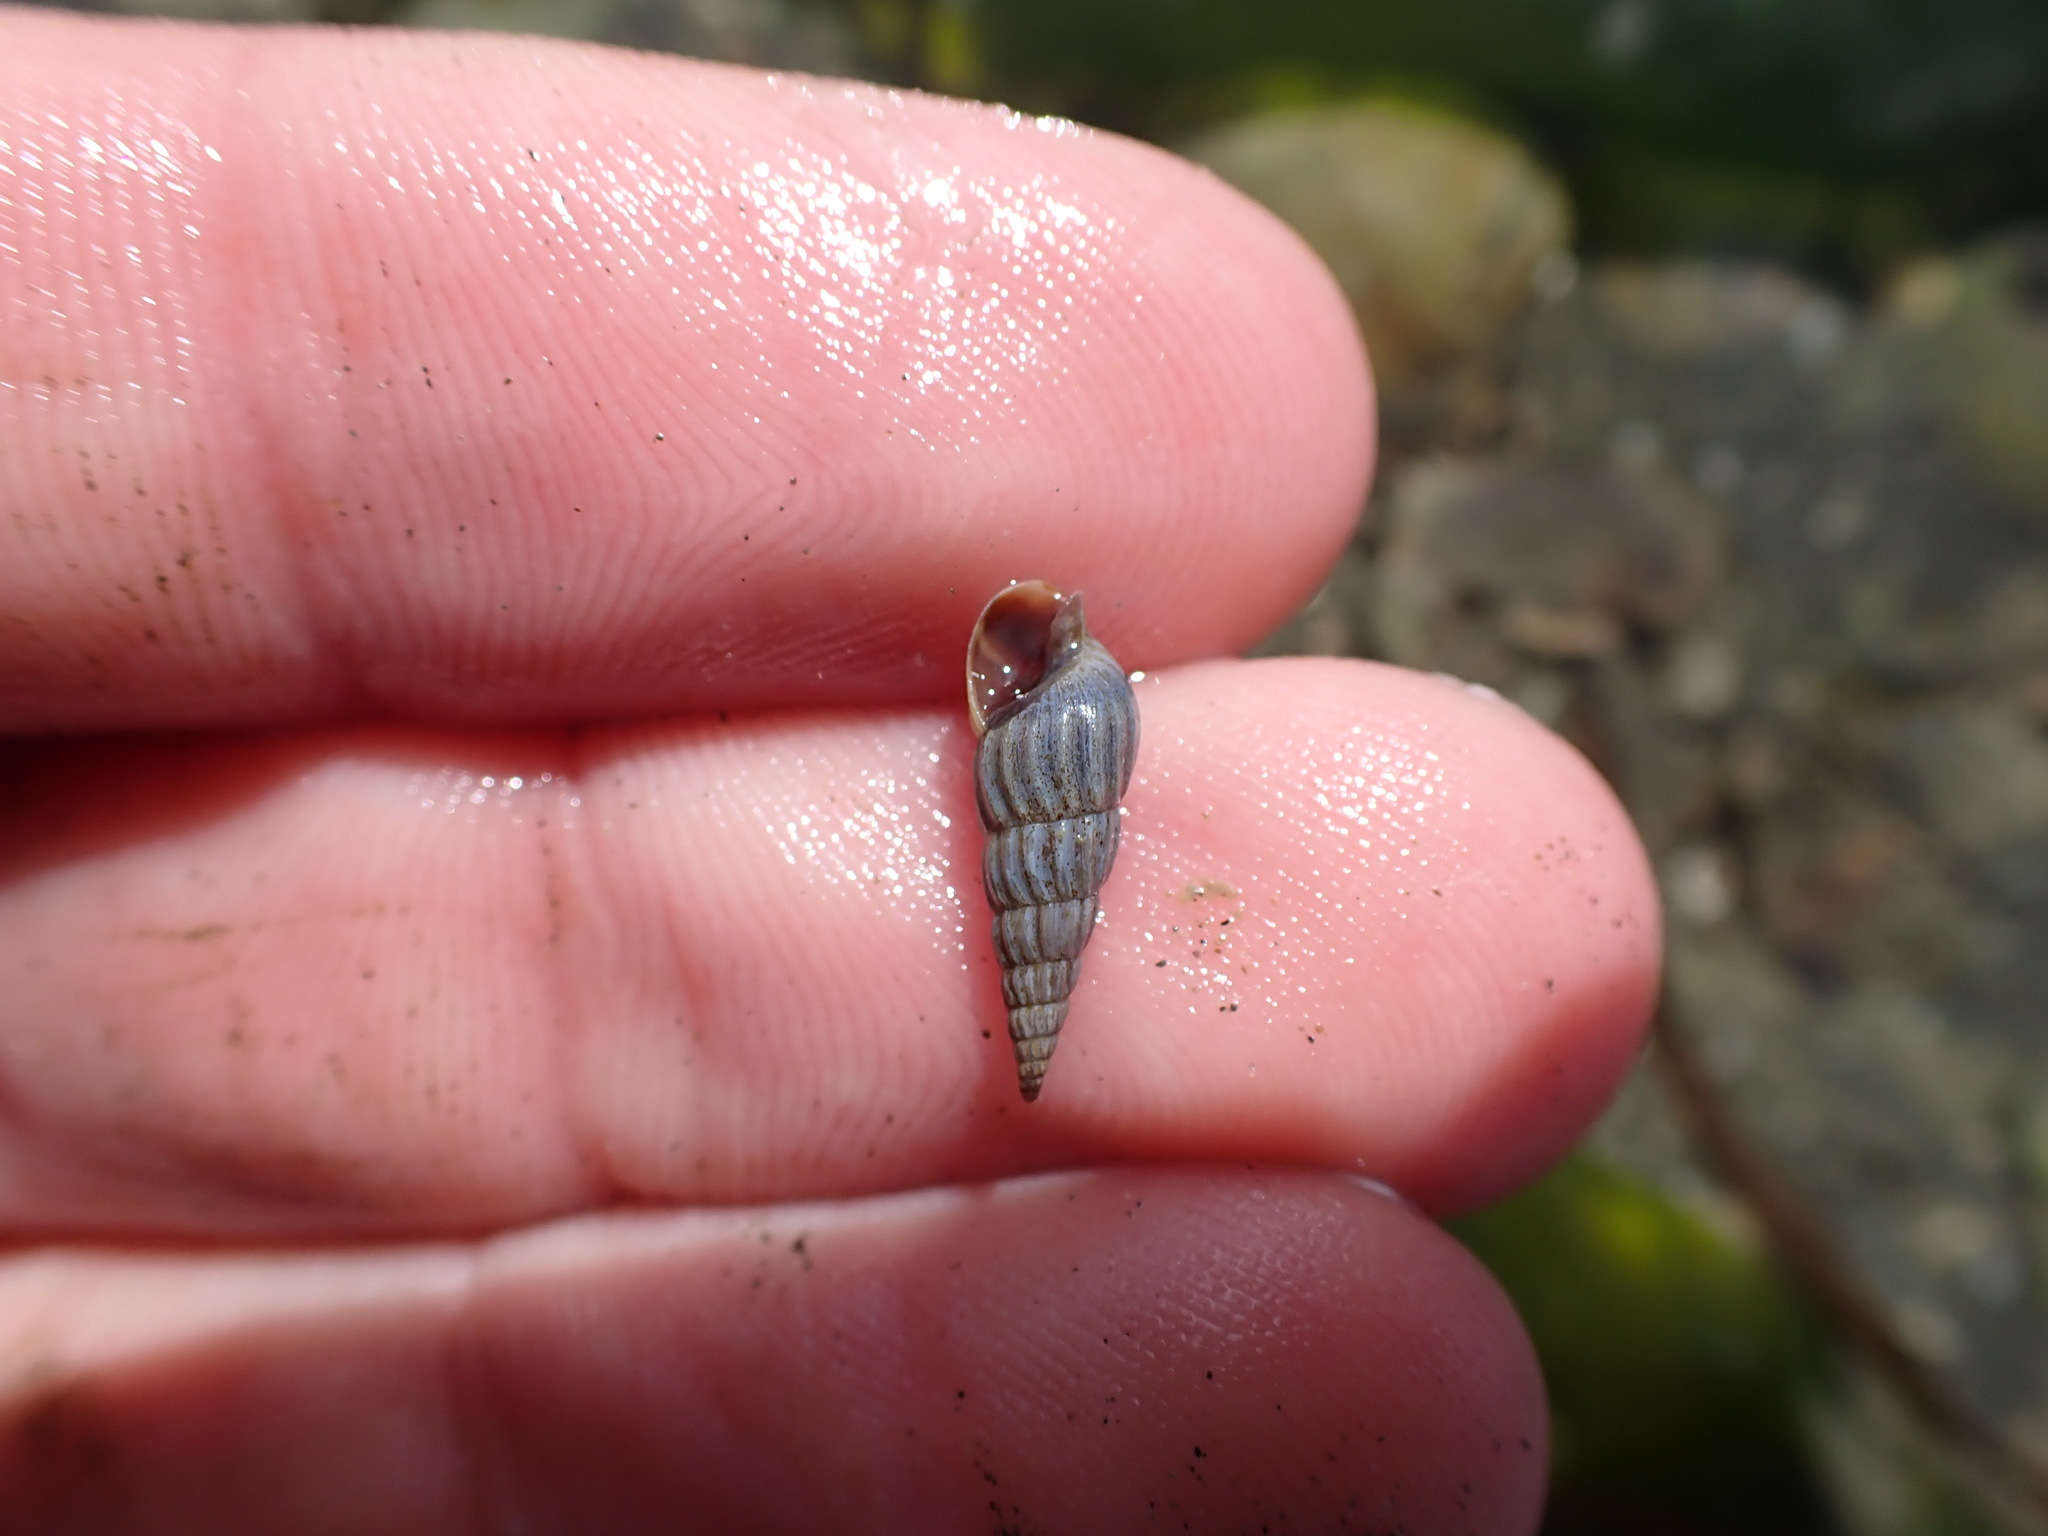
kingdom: Animalia
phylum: Mollusca
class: Gastropoda
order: Neogastropoda
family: Terebridae
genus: Duplicaria
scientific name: Duplicaria tristis
